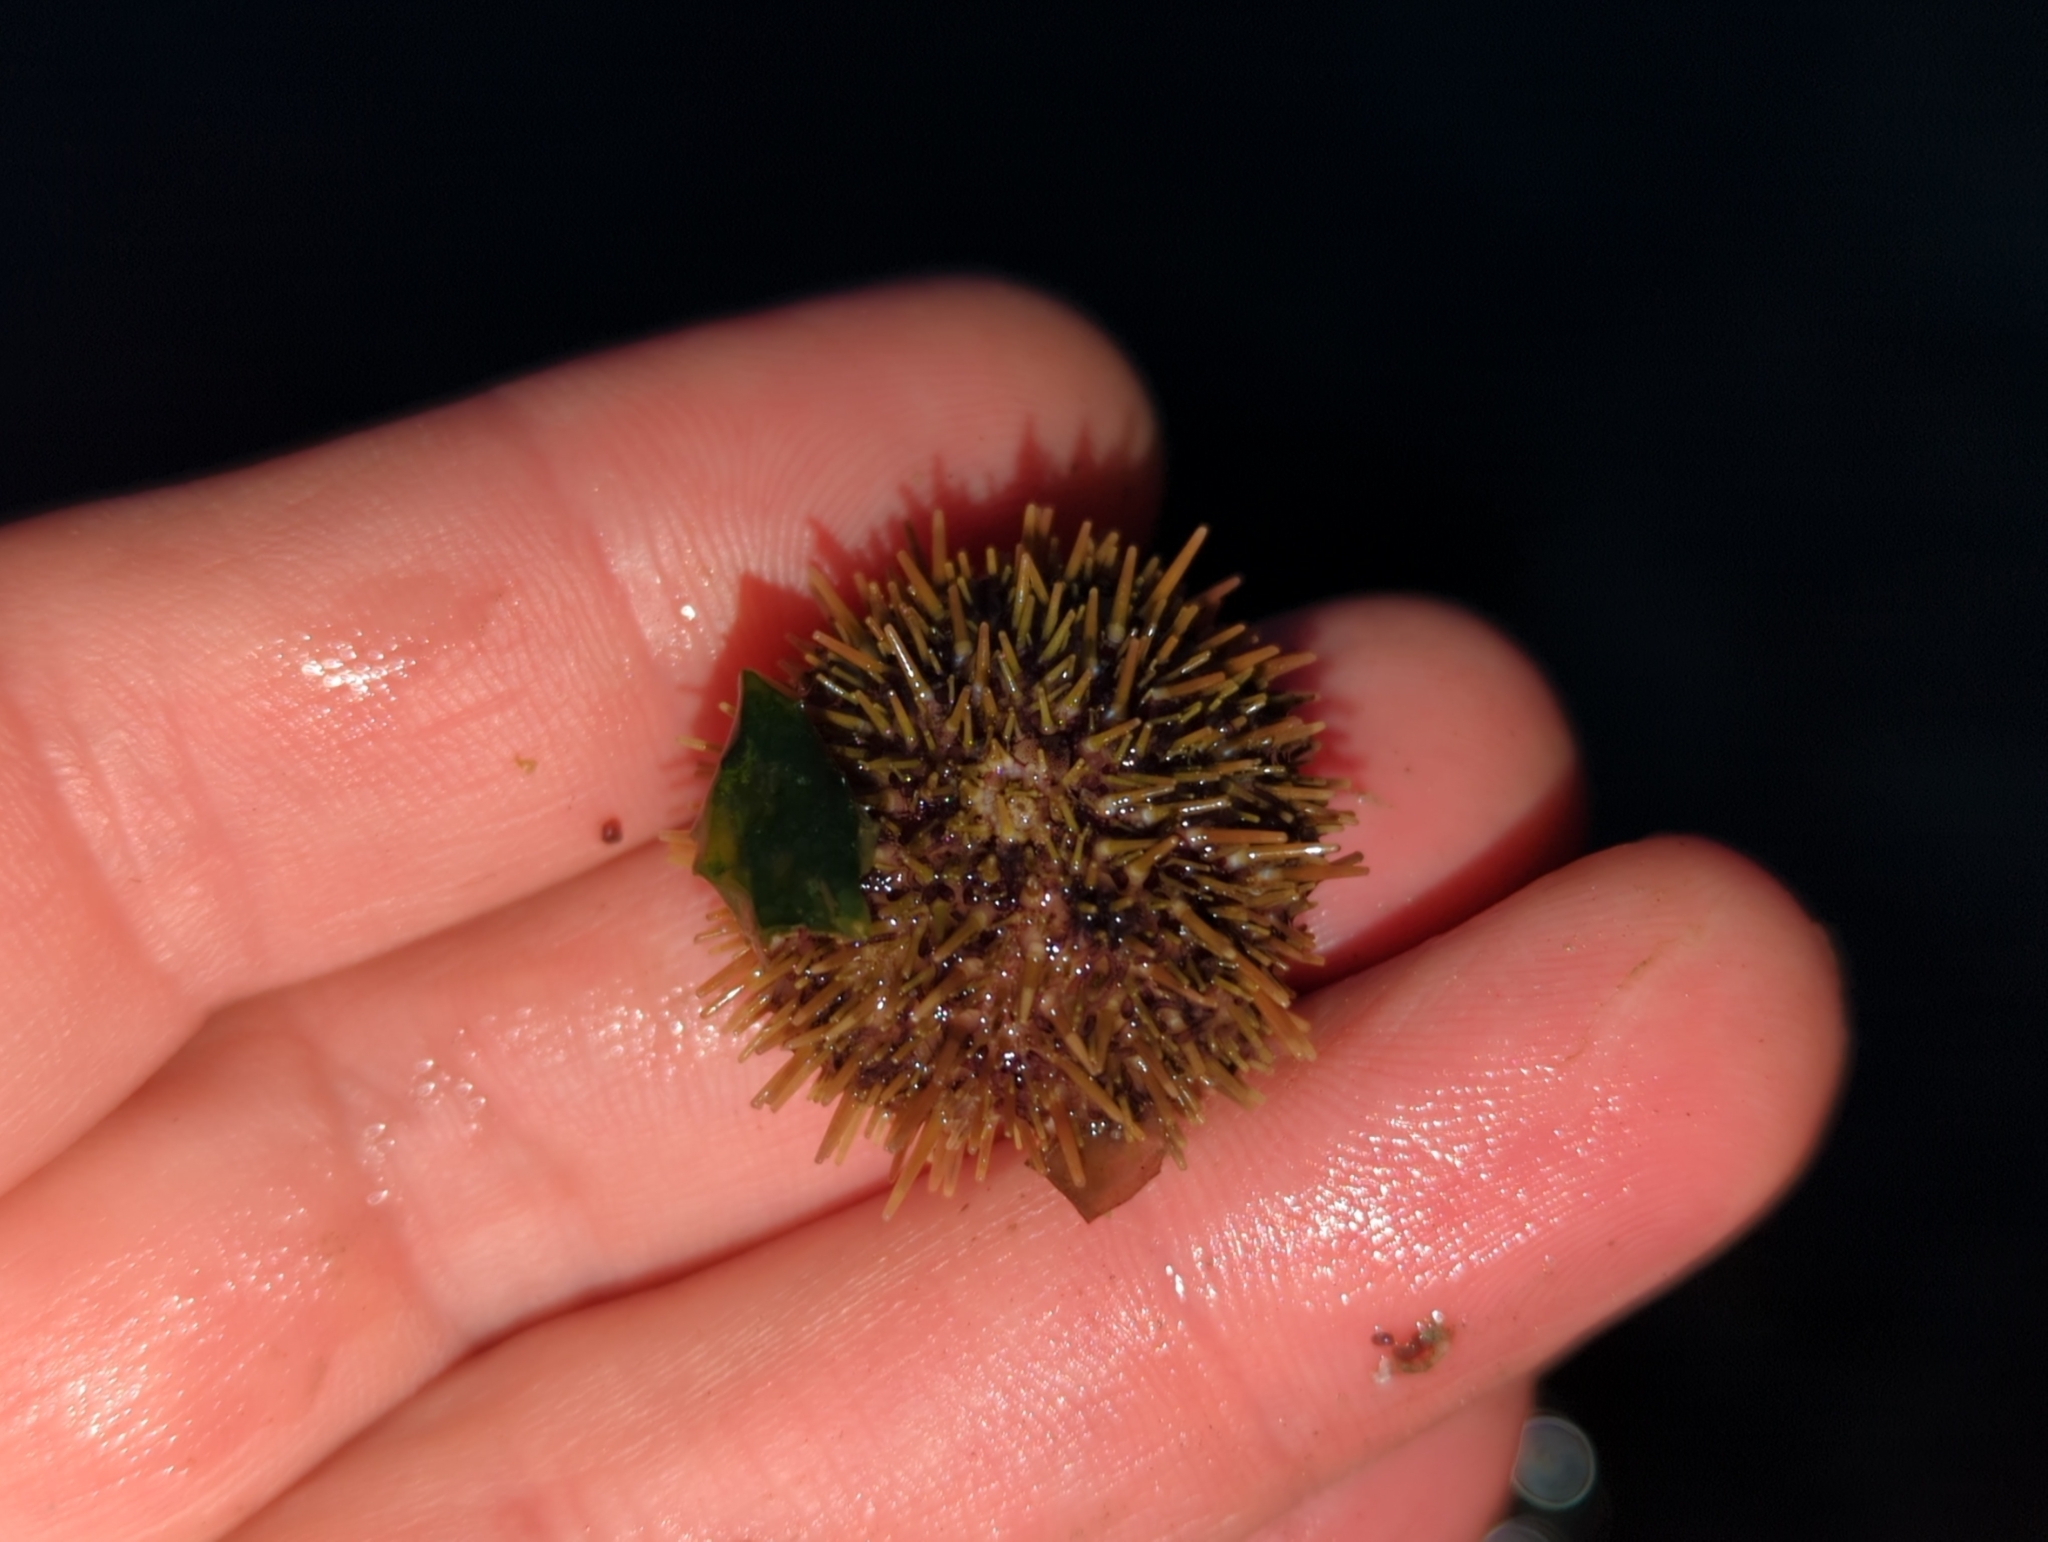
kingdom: Animalia
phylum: Echinodermata
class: Echinoidea
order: Camarodonta
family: Strongylocentrotidae
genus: Strongylocentrotus
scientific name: Strongylocentrotus droebachiensis
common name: Northern sea urchin
